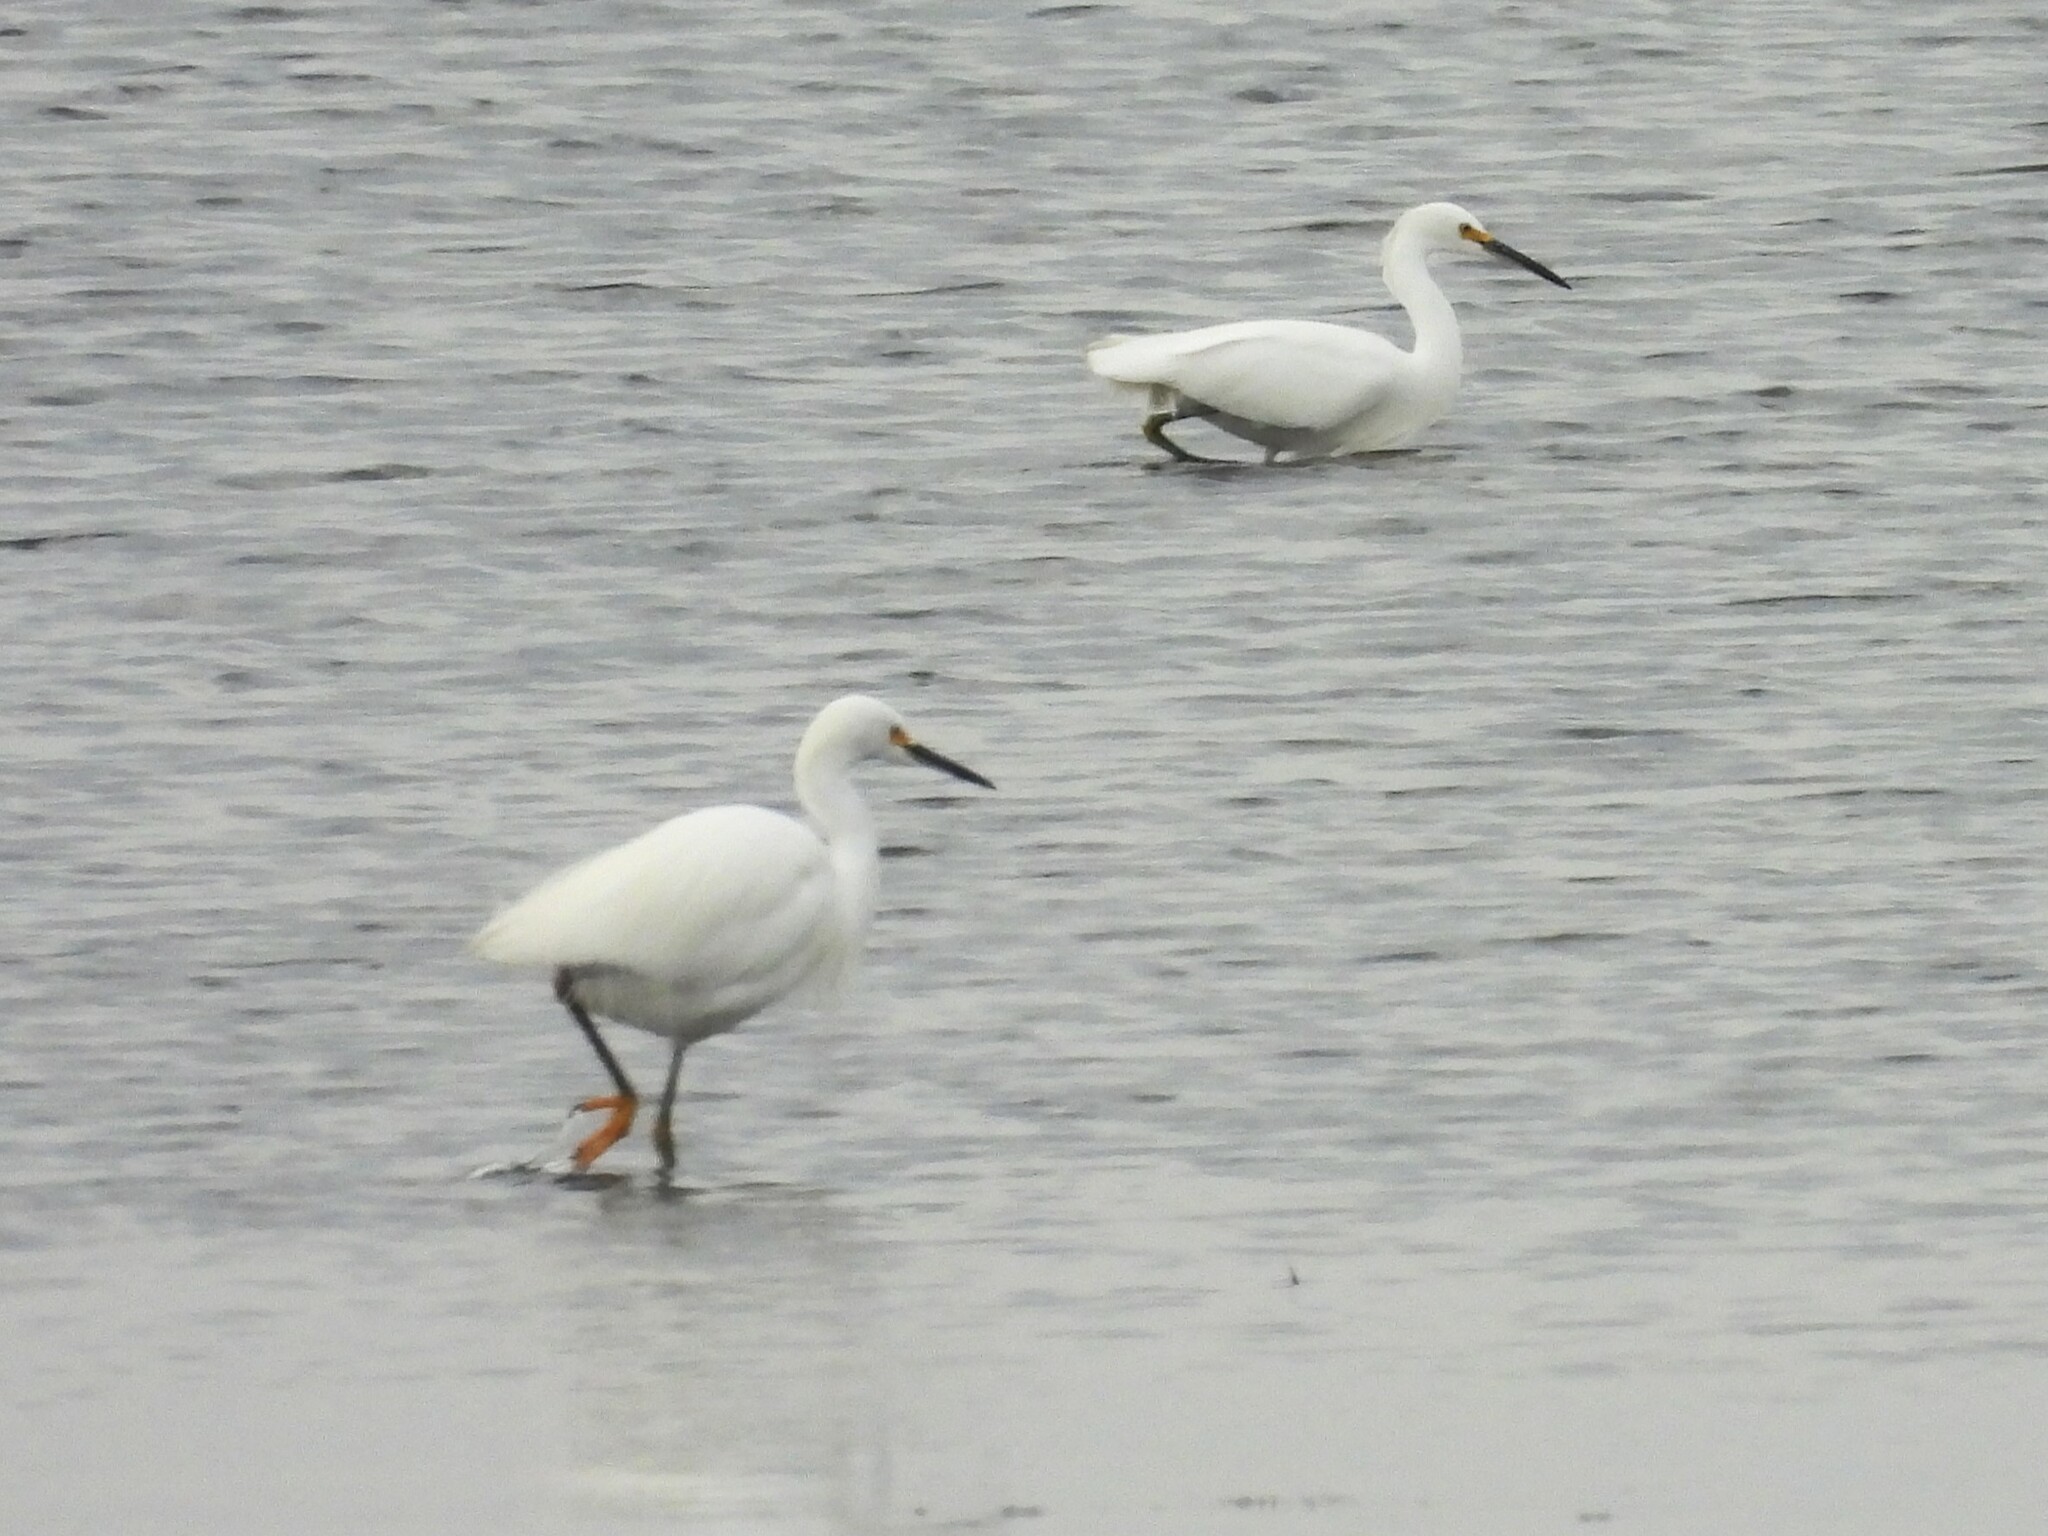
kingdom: Animalia
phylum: Chordata
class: Aves
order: Pelecaniformes
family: Ardeidae
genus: Egretta
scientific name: Egretta thula
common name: Snowy egret
